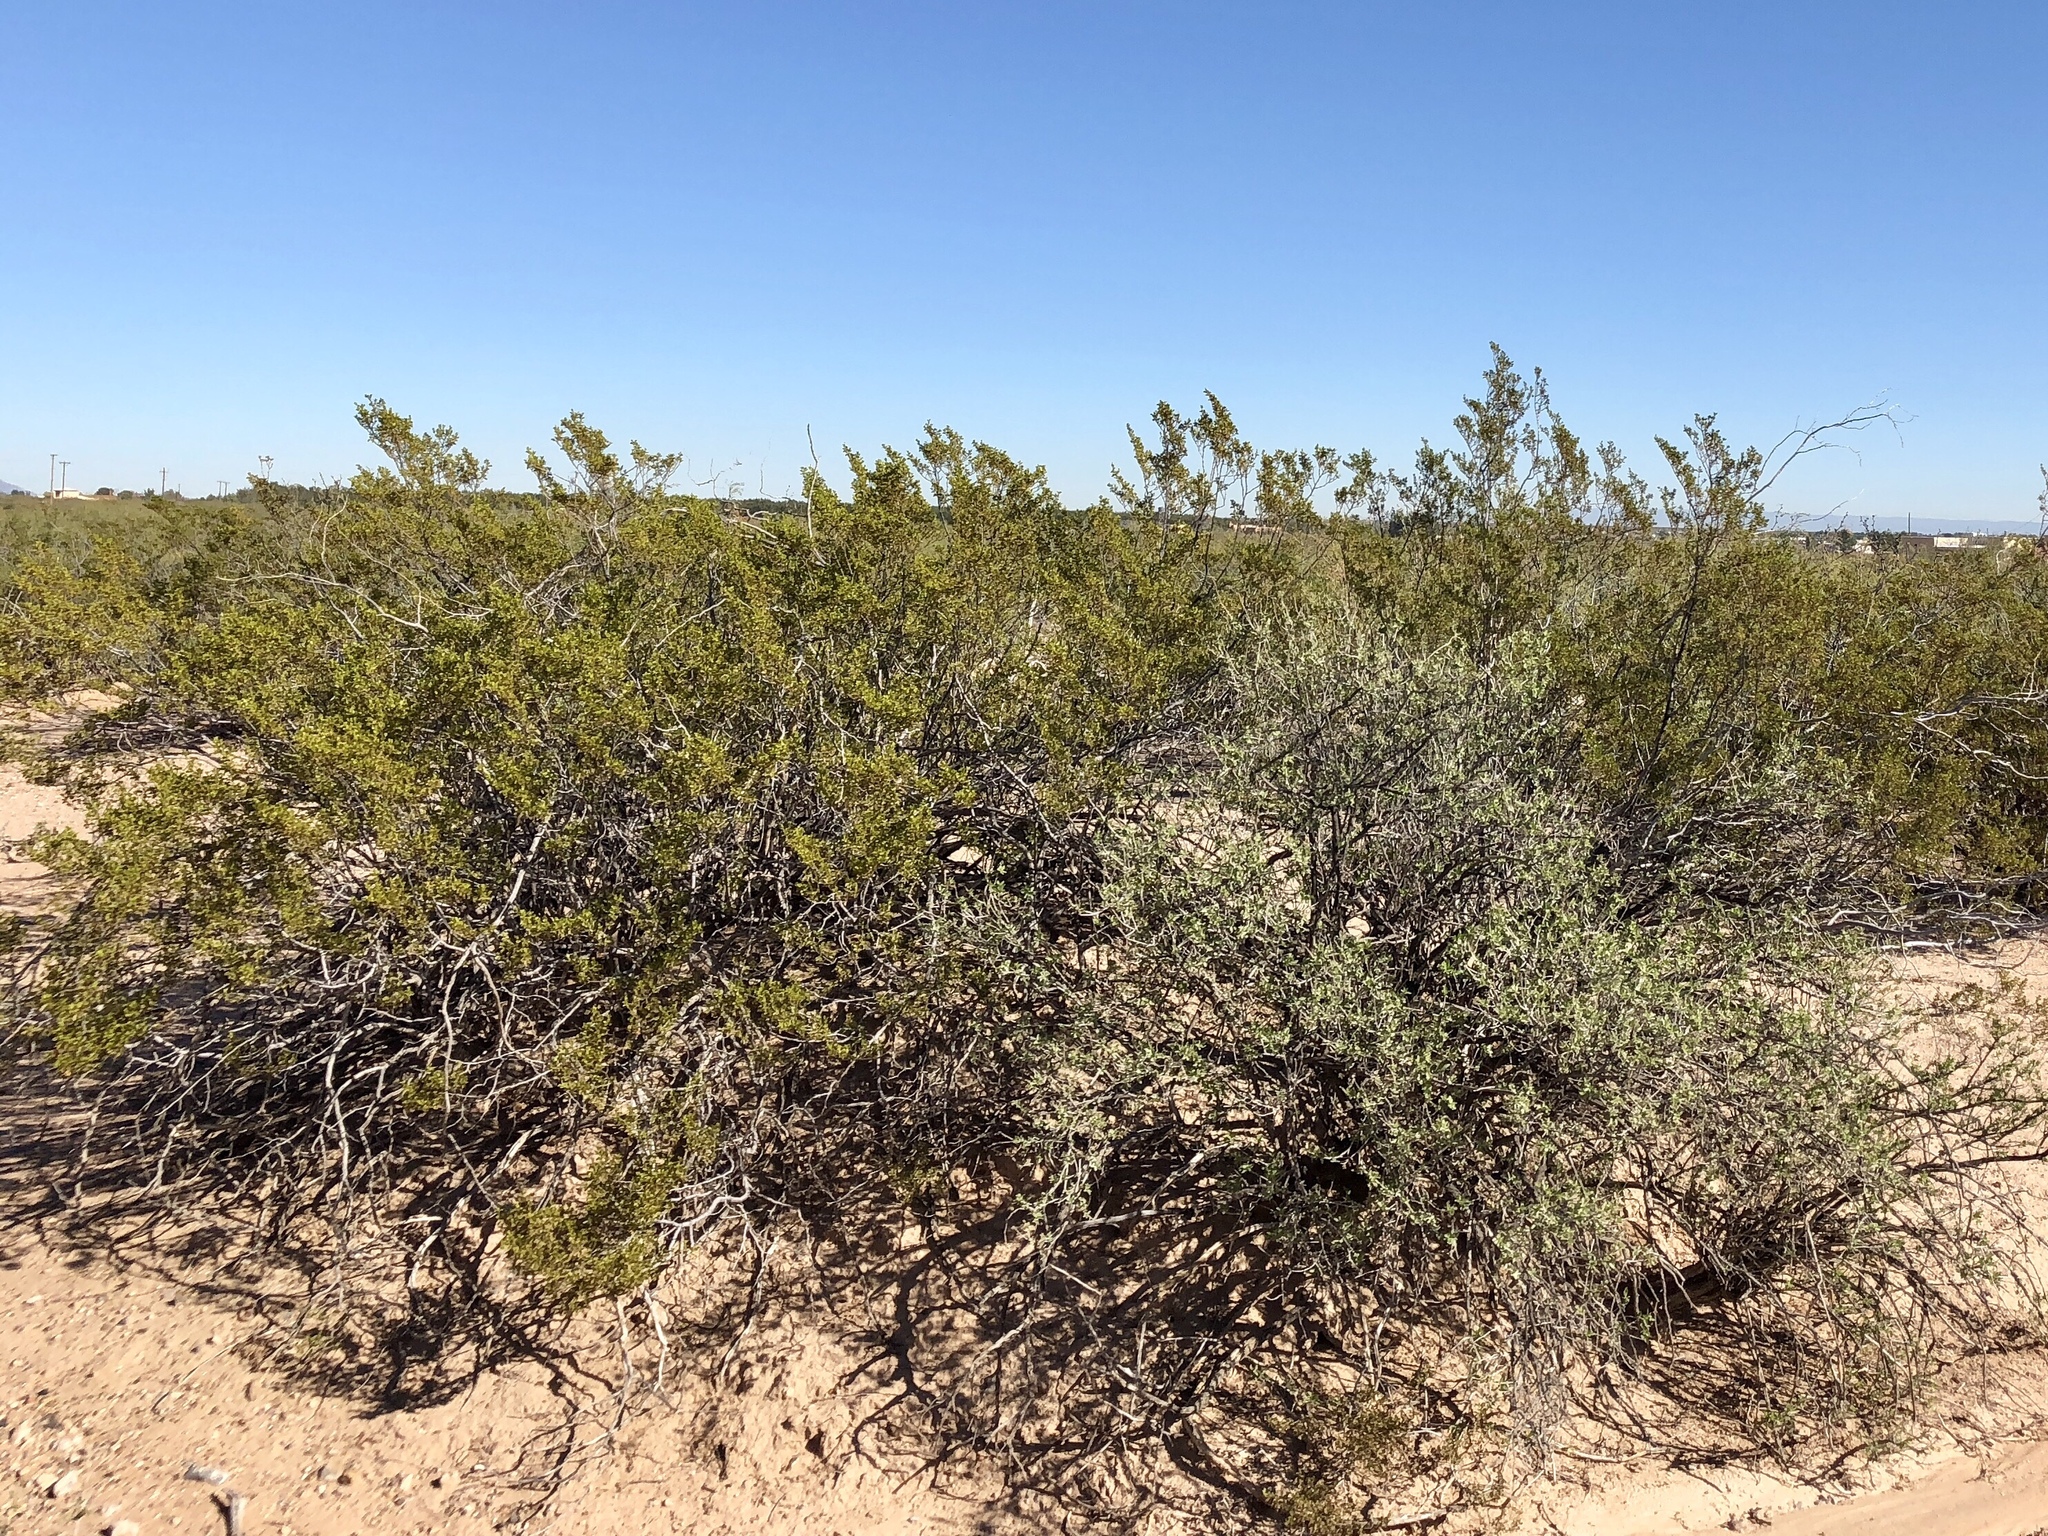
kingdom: Plantae
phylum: Tracheophyta
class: Magnoliopsida
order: Zygophyllales
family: Zygophyllaceae
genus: Larrea
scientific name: Larrea tridentata
